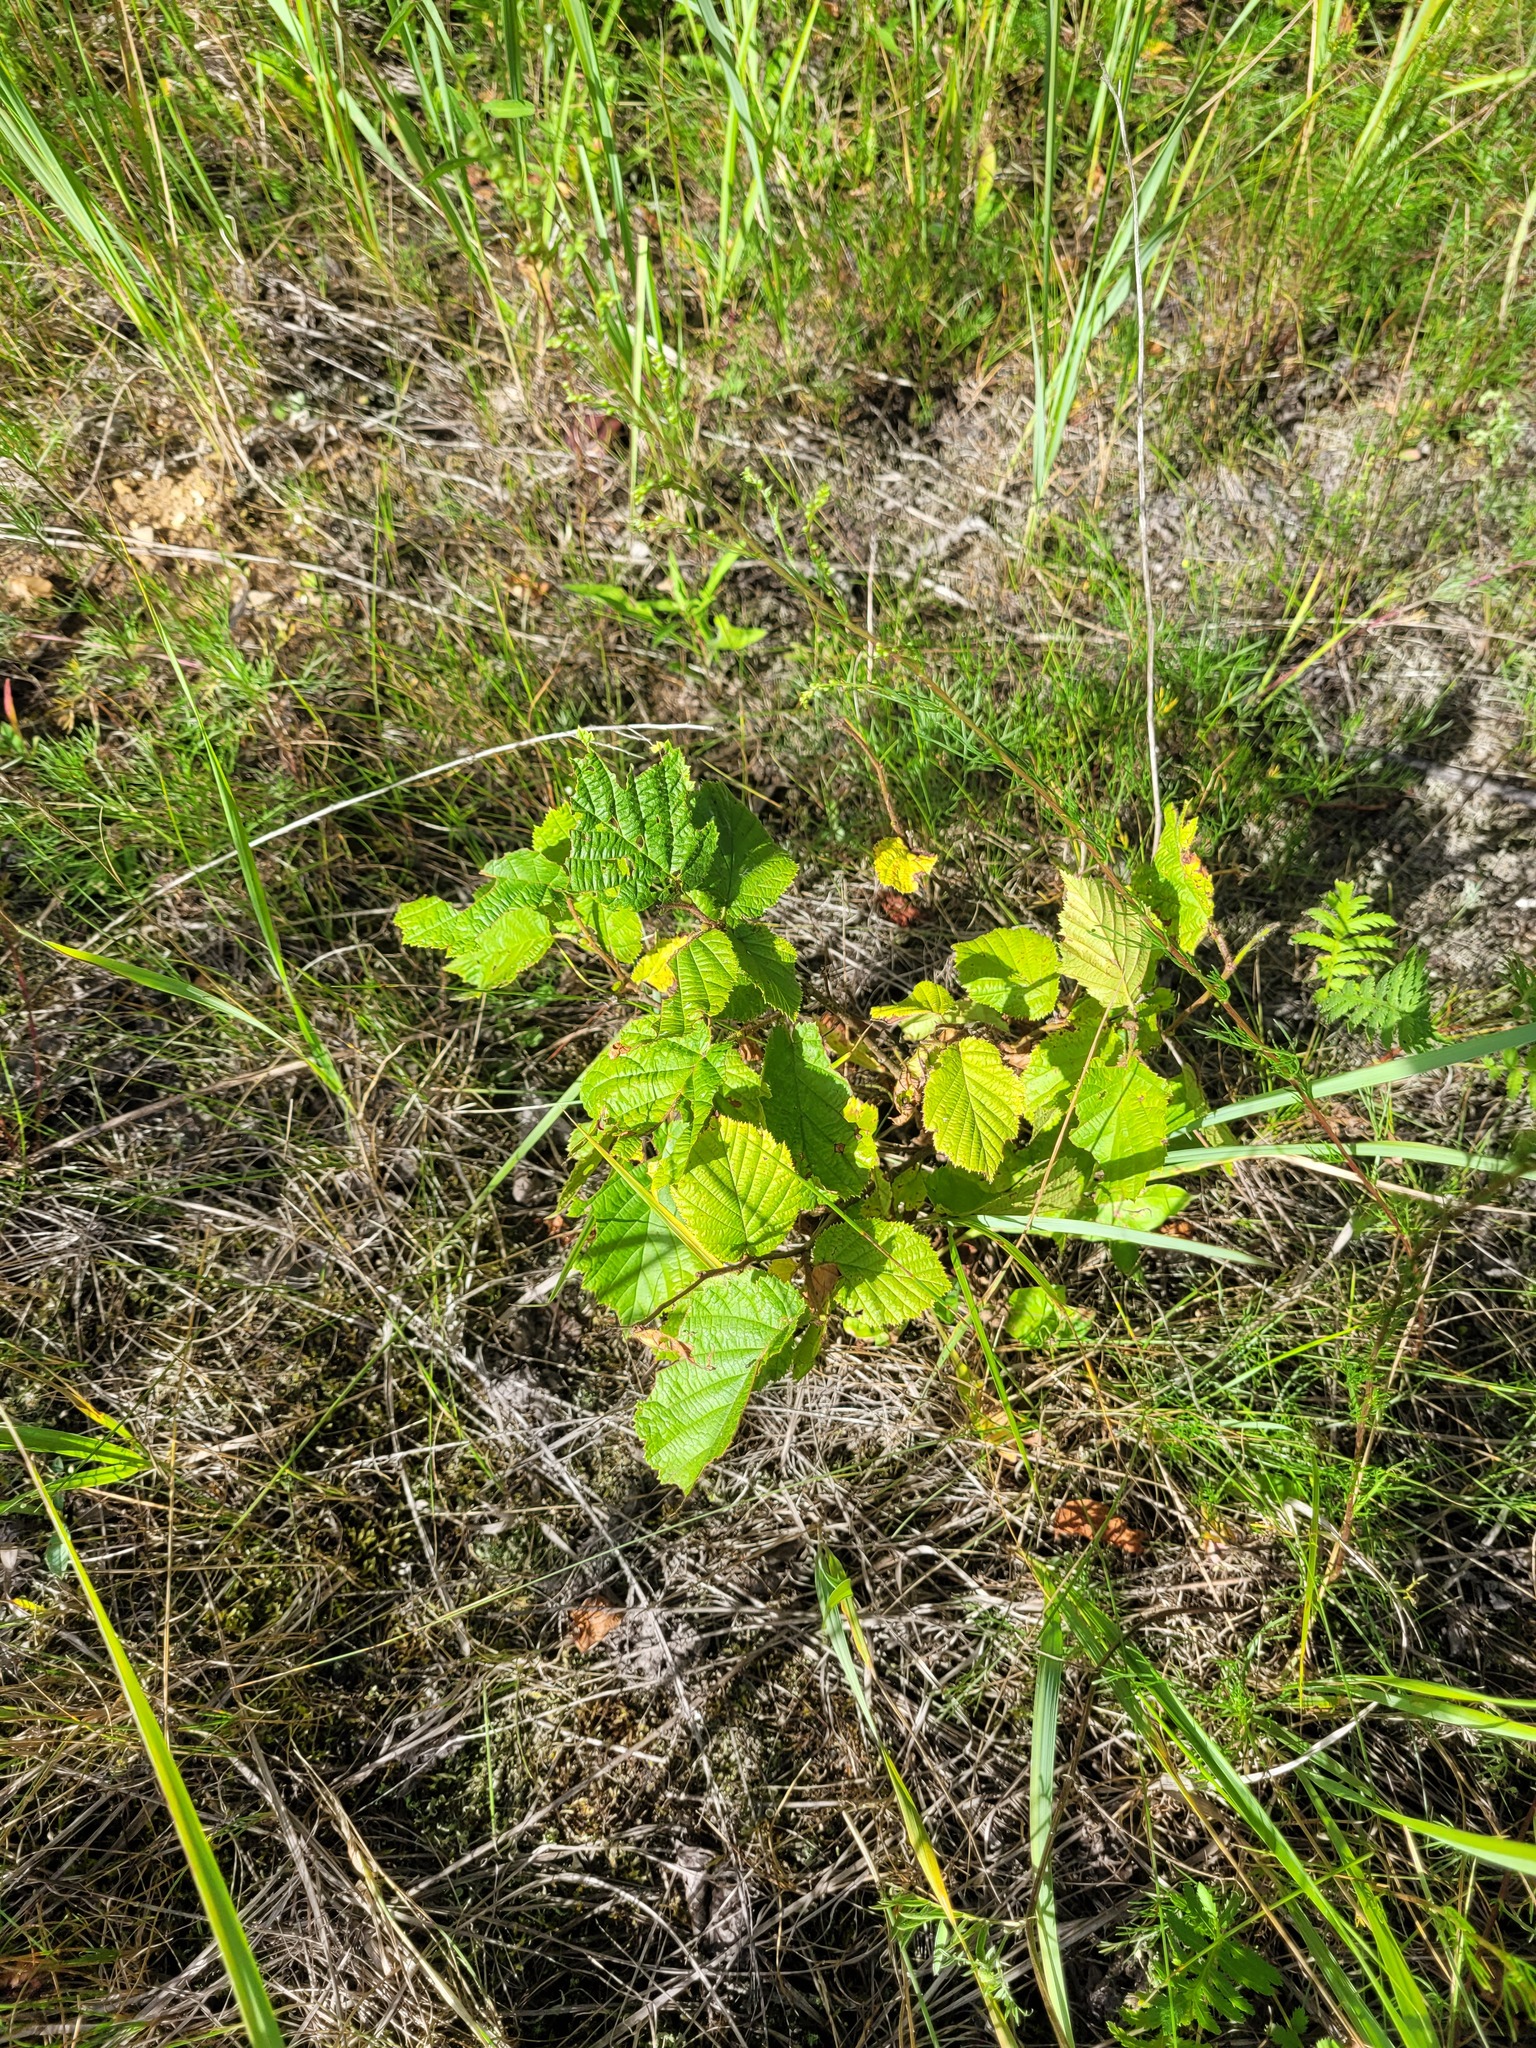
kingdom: Plantae
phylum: Tracheophyta
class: Magnoliopsida
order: Fagales
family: Betulaceae
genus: Corylus
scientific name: Corylus avellana
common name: European hazel
